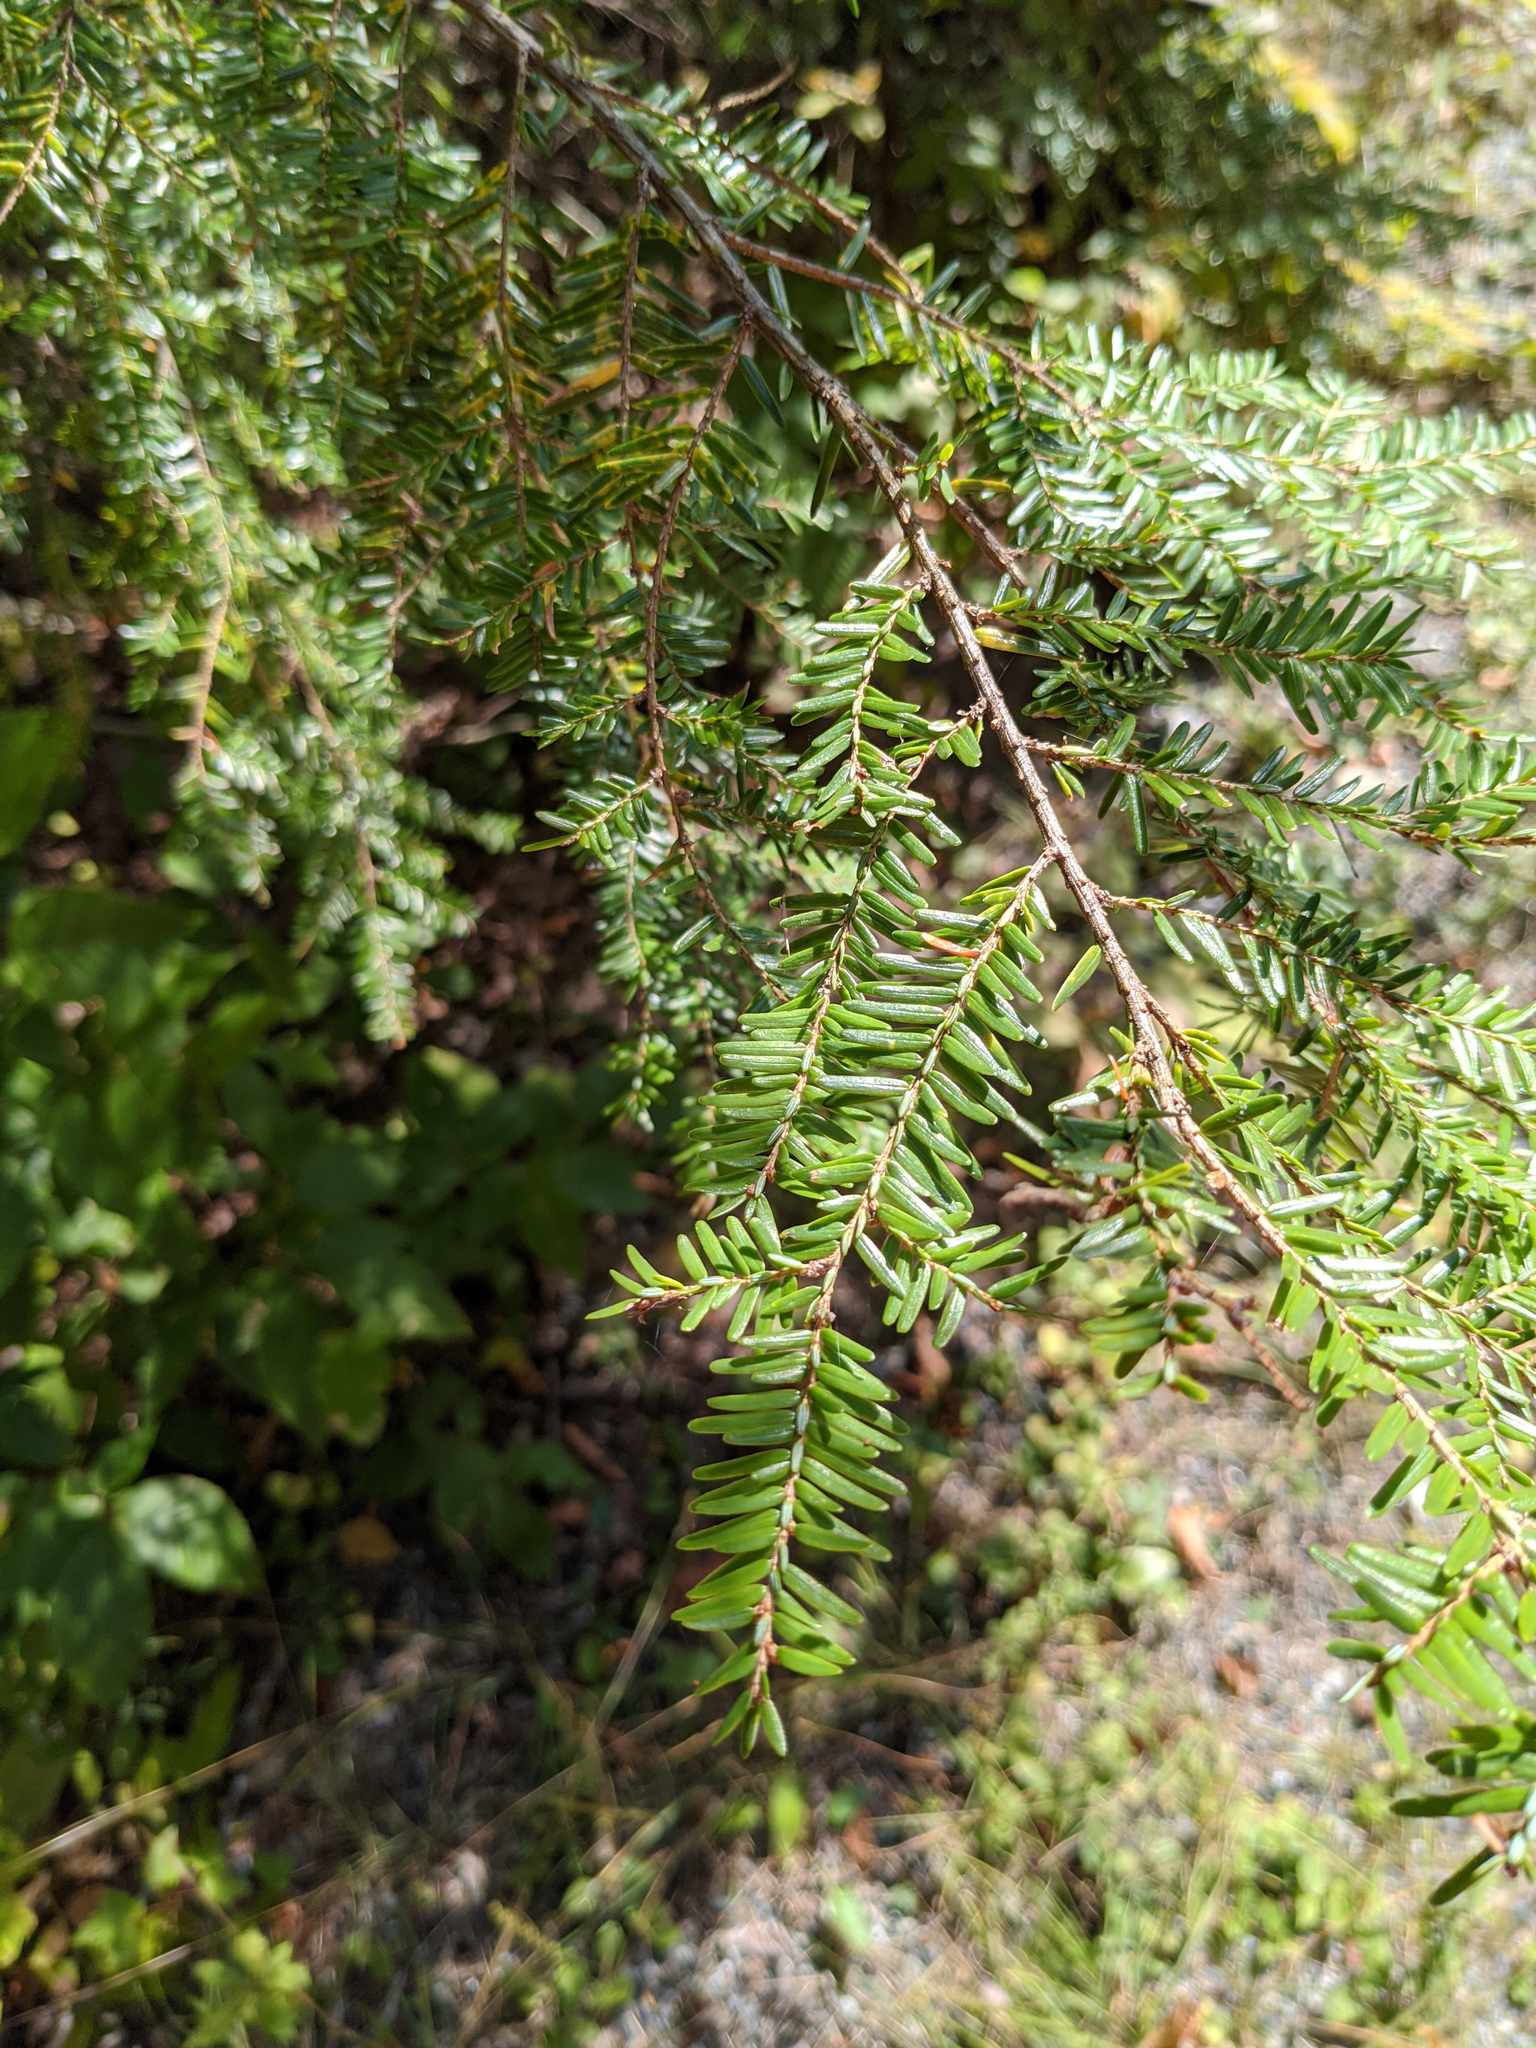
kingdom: Plantae
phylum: Tracheophyta
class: Pinopsida
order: Pinales
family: Pinaceae
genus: Tsuga
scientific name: Tsuga canadensis
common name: Eastern hemlock
